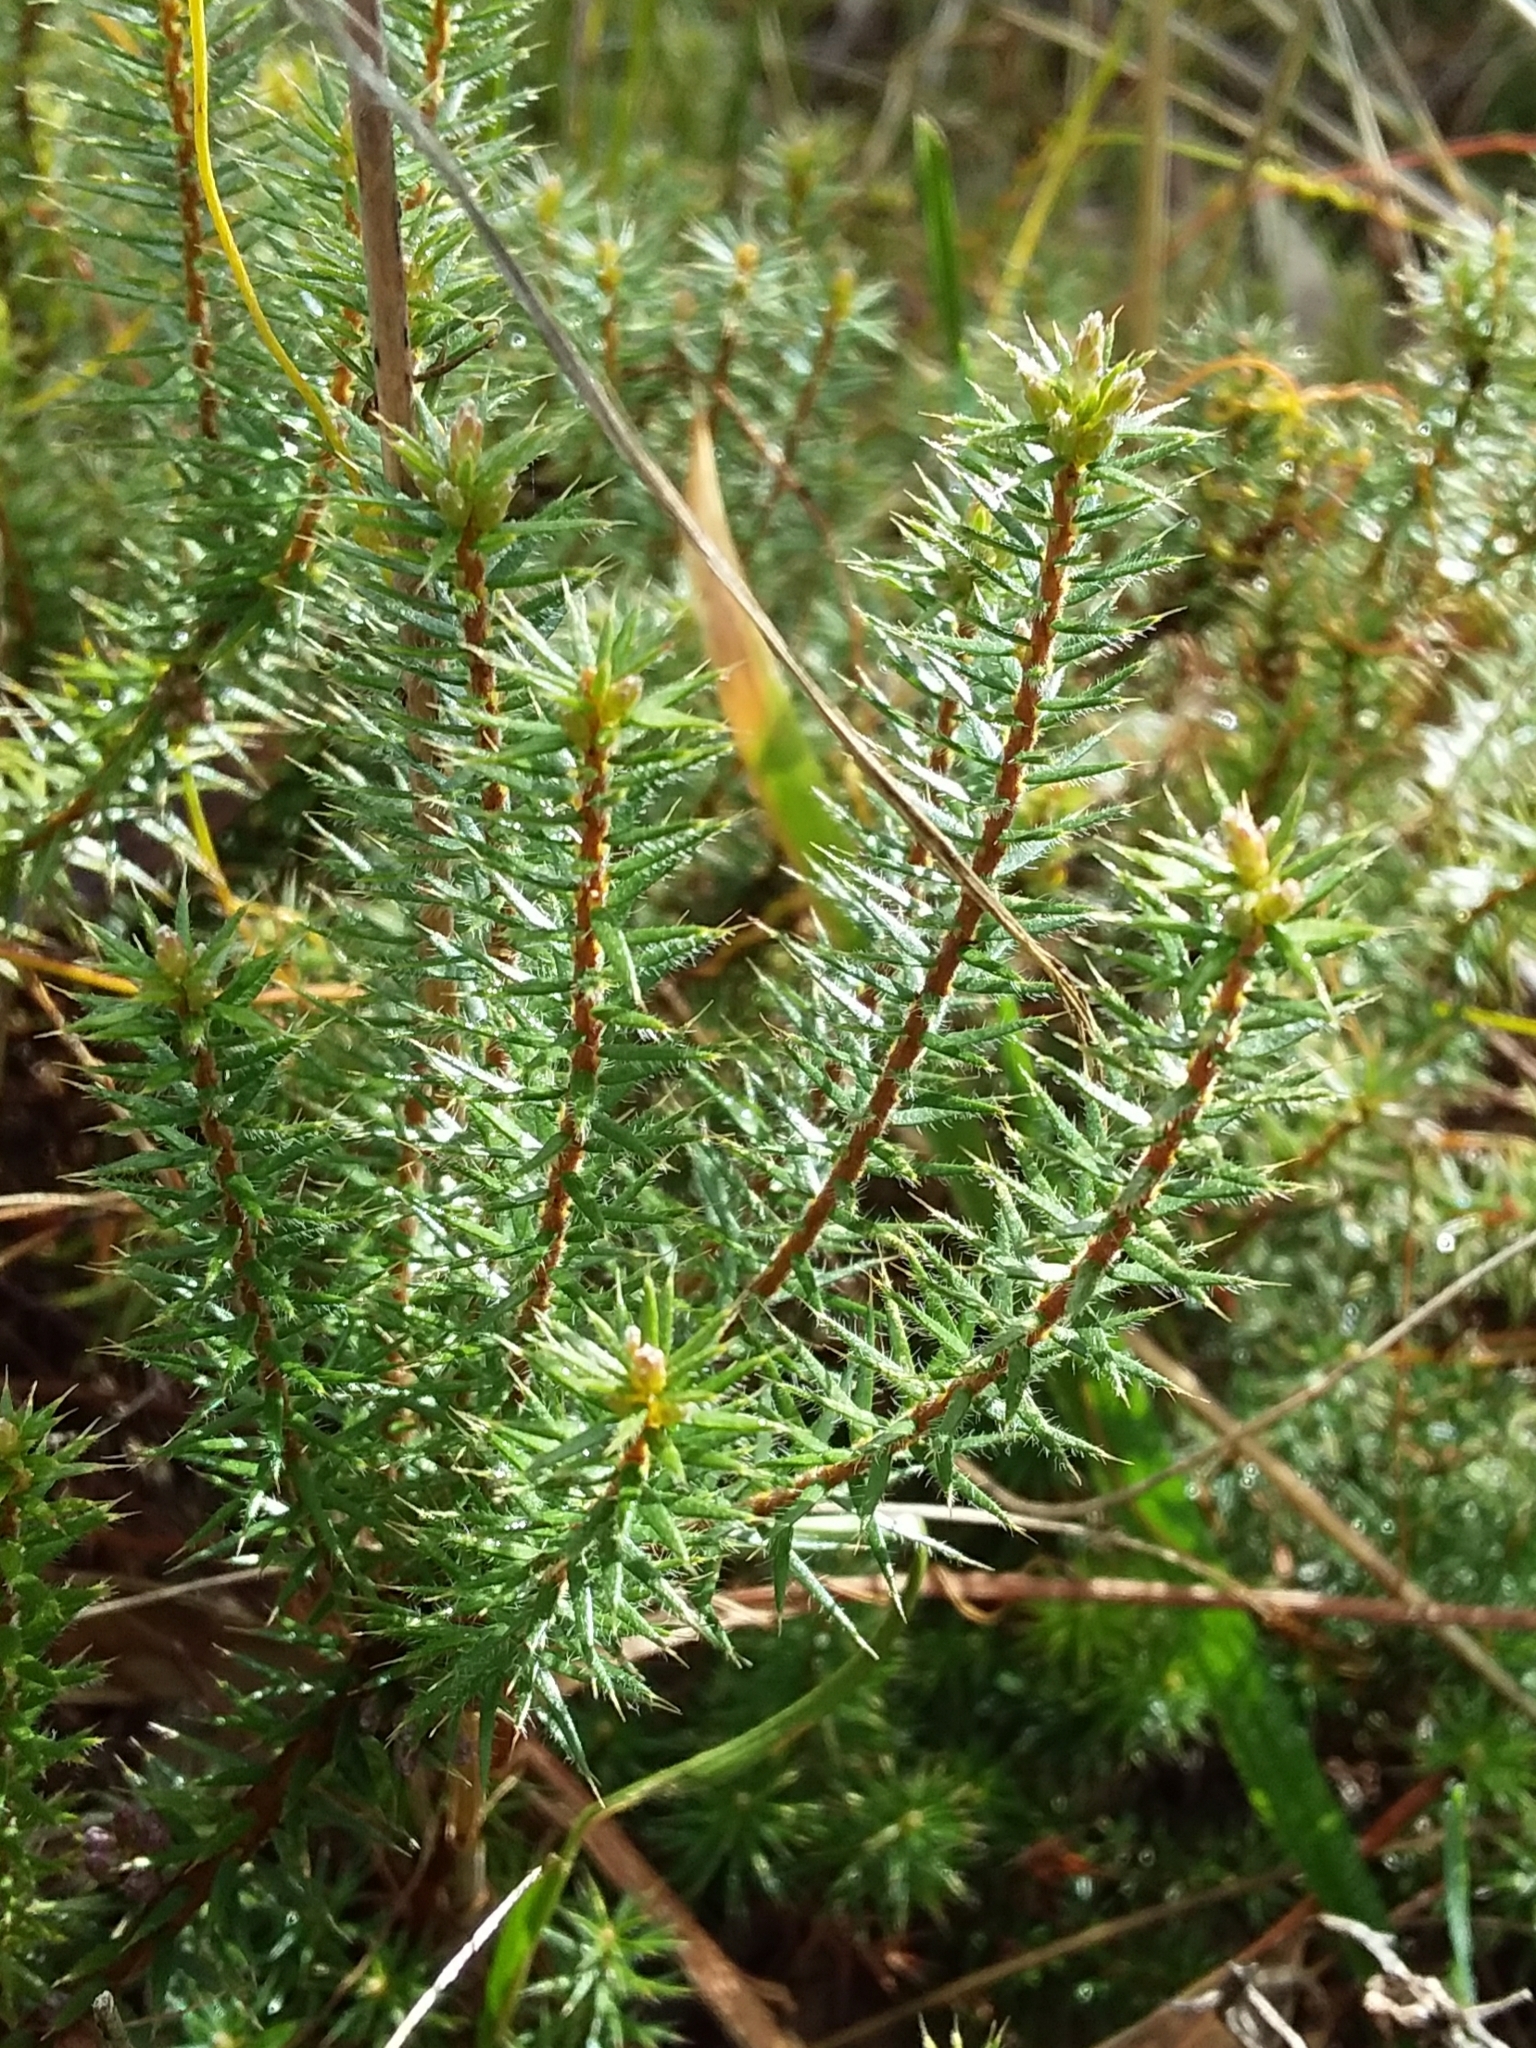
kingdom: Plantae
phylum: Tracheophyta
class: Magnoliopsida
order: Ericales
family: Ericaceae
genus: Acrotriche
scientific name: Acrotriche serrulata
